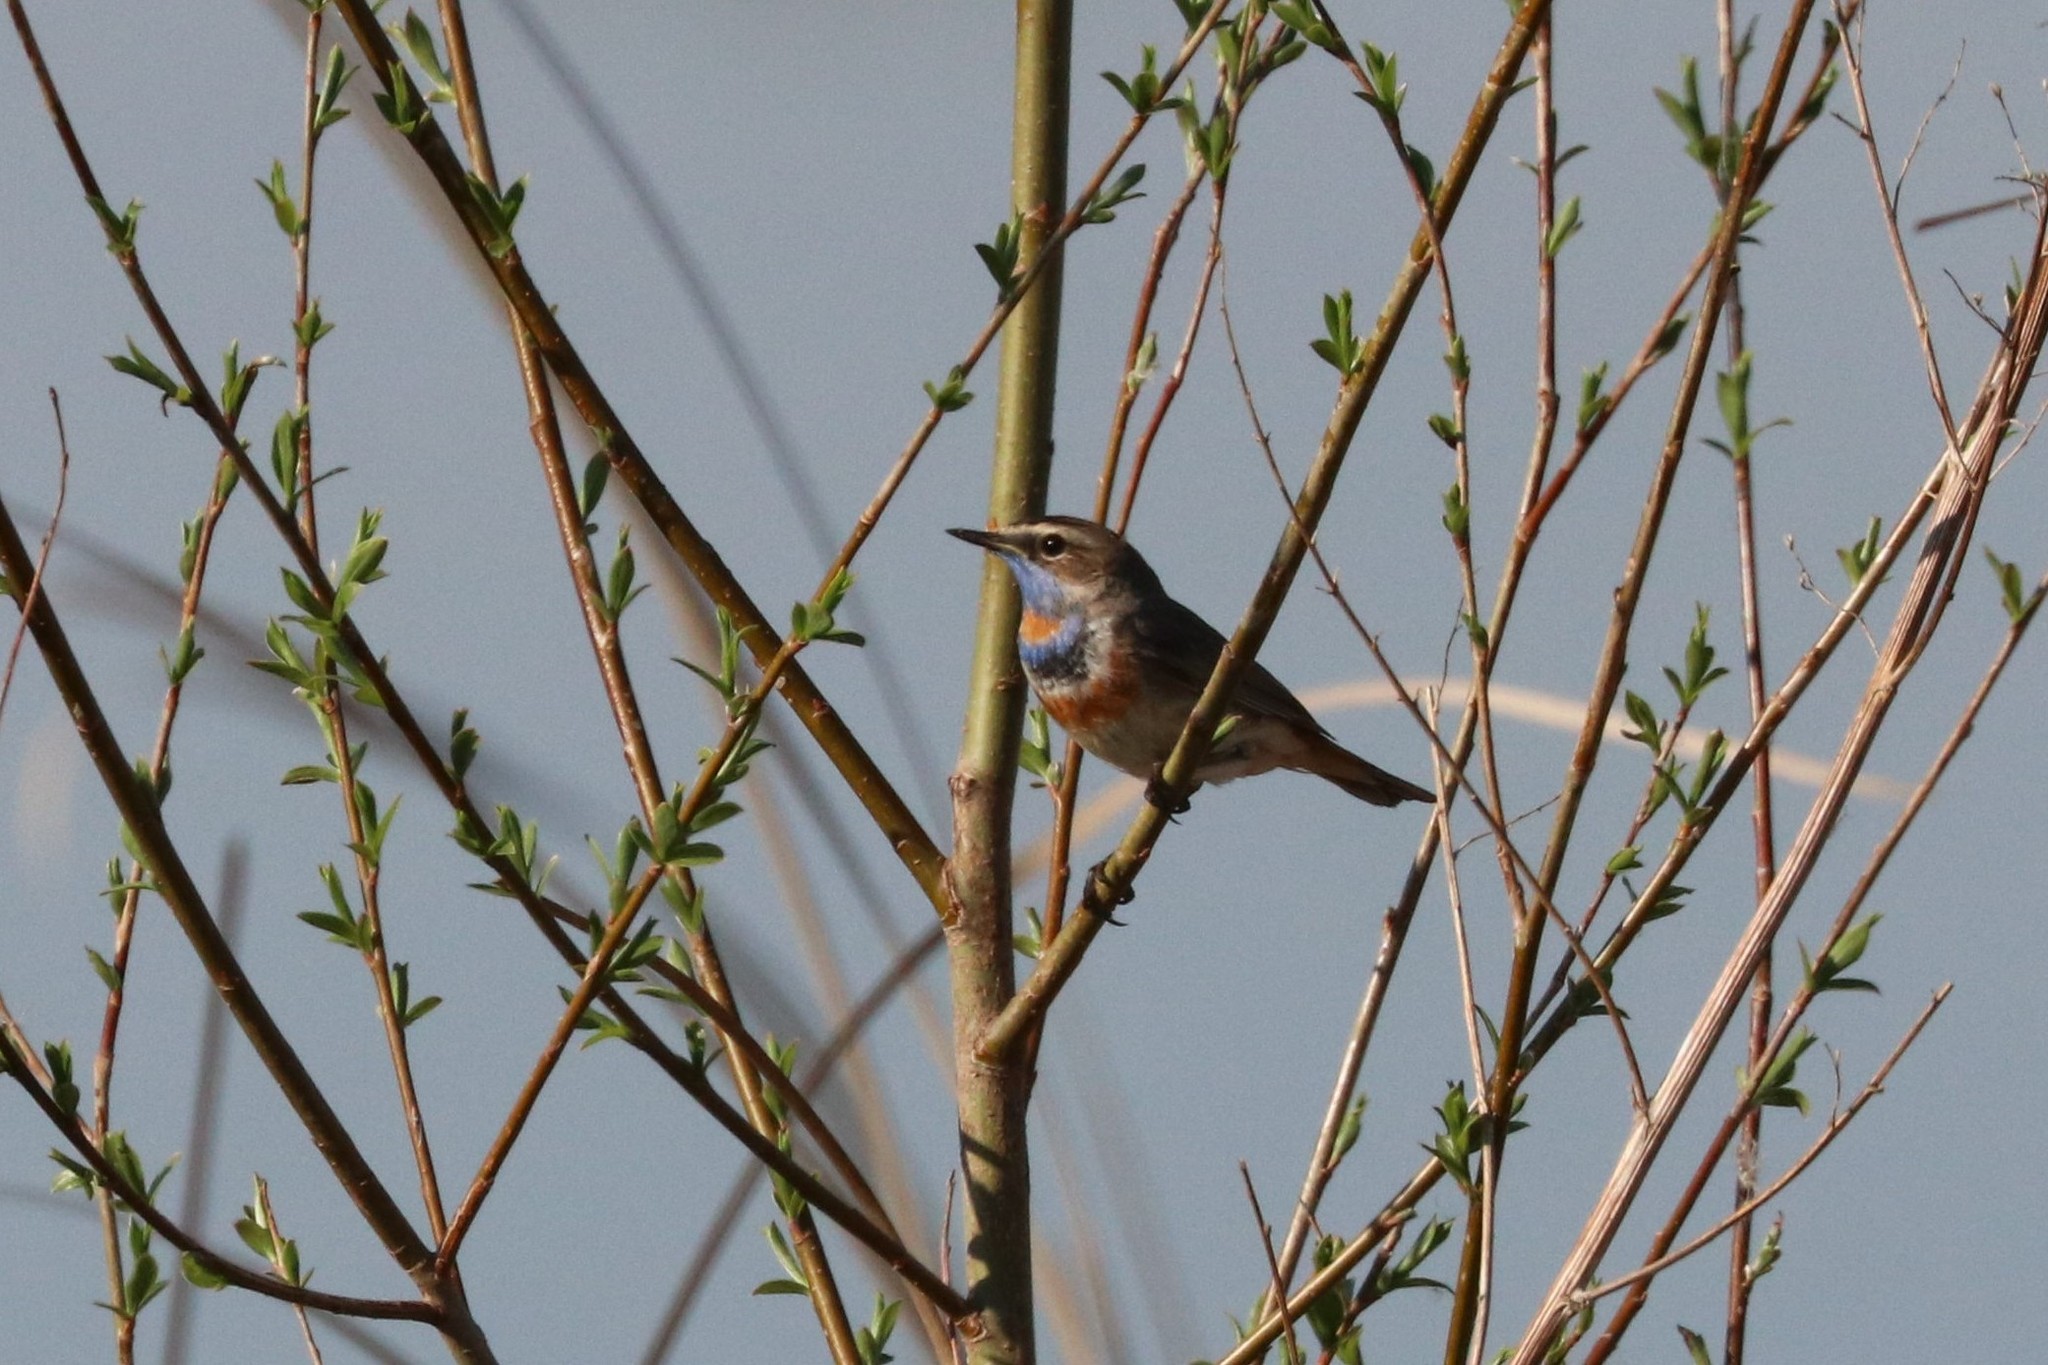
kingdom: Animalia
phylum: Chordata
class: Aves
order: Passeriformes
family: Muscicapidae
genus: Luscinia
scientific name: Luscinia svecica
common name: Bluethroat
